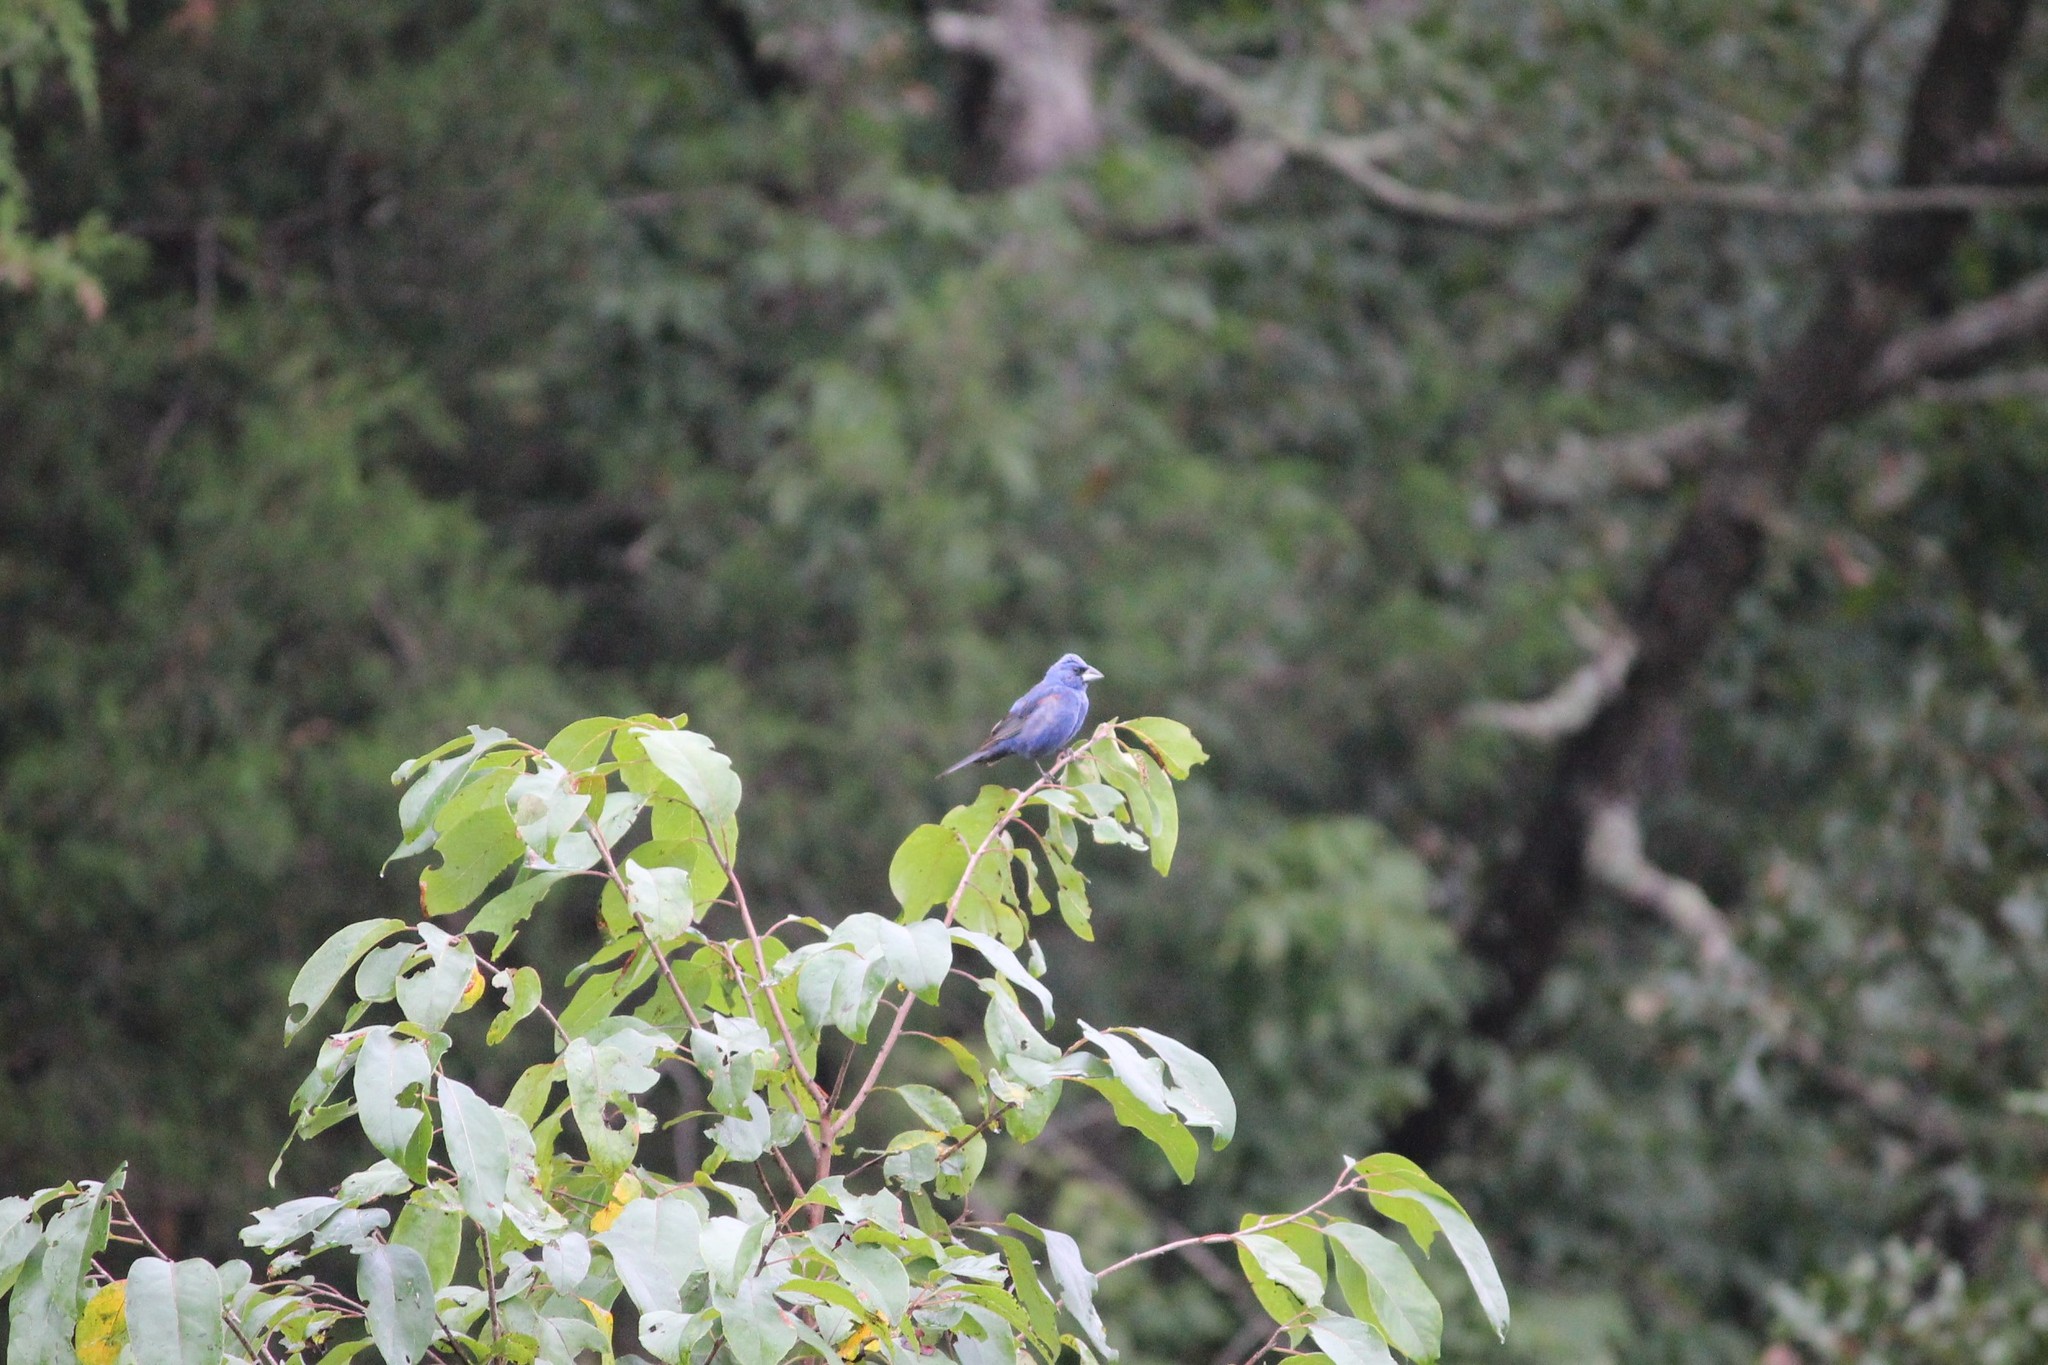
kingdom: Animalia
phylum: Chordata
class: Aves
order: Passeriformes
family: Cardinalidae
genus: Passerina
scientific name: Passerina caerulea
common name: Blue grosbeak
